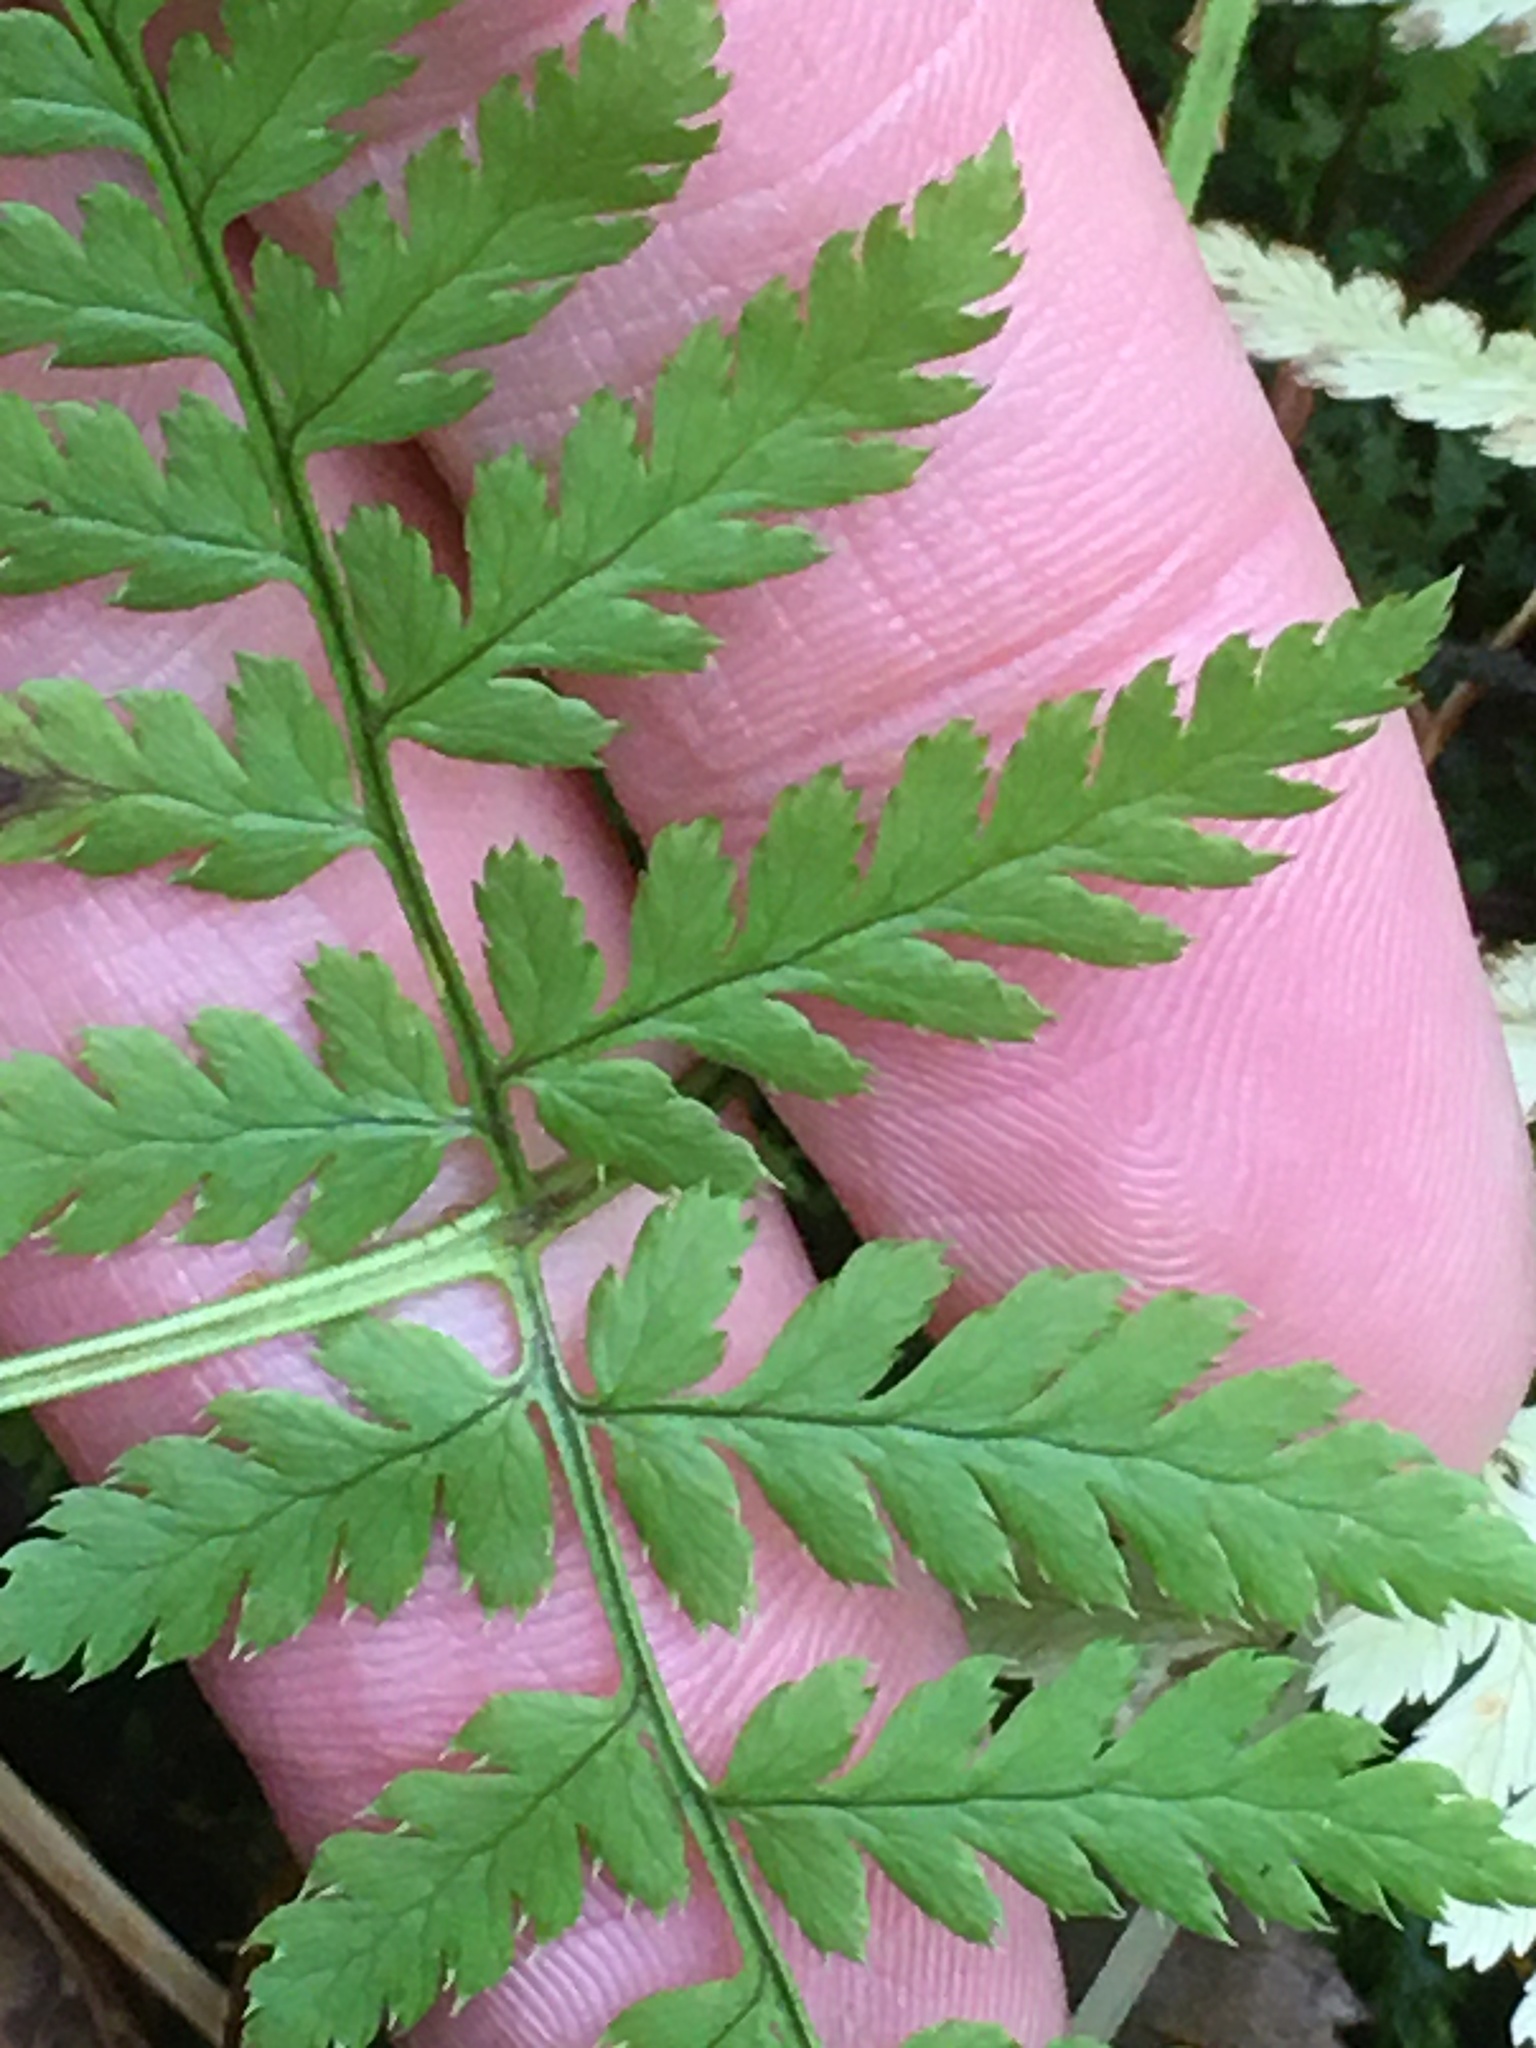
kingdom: Plantae
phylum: Tracheophyta
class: Polypodiopsida
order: Polypodiales
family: Dryopteridaceae
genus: Dryopteris
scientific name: Dryopteris carthusiana
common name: Narrow buckler-fern
